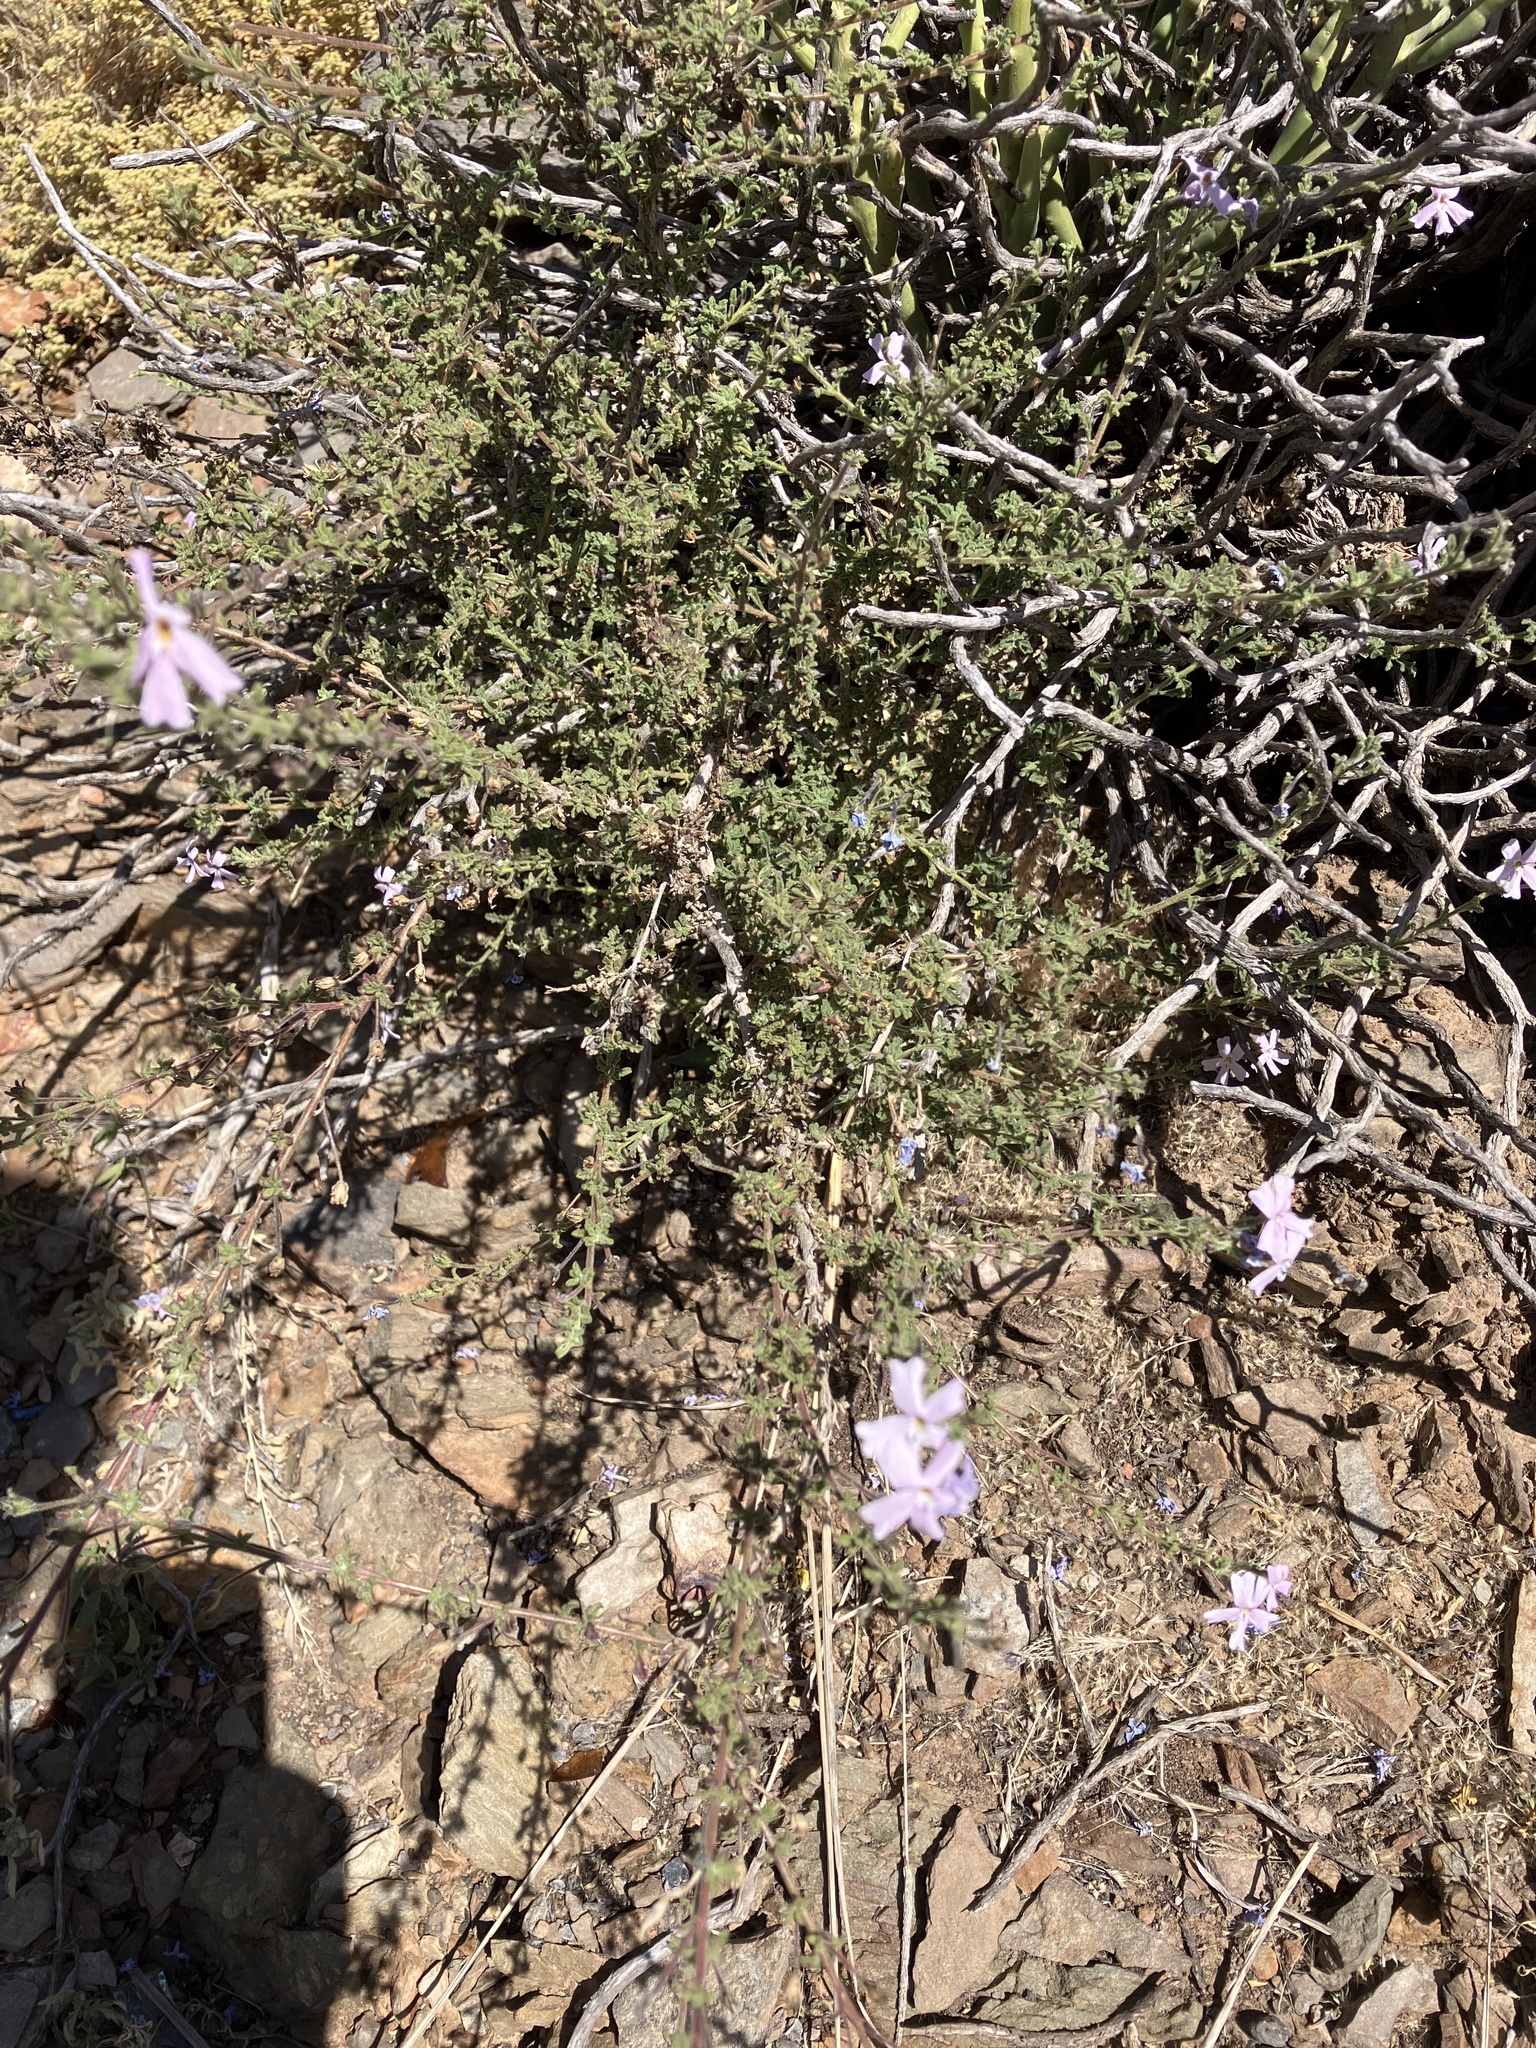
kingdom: Plantae
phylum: Tracheophyta
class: Magnoliopsida
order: Lamiales
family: Scrophulariaceae
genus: Jamesbrittenia
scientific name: Jamesbrittenia aspalathoides
